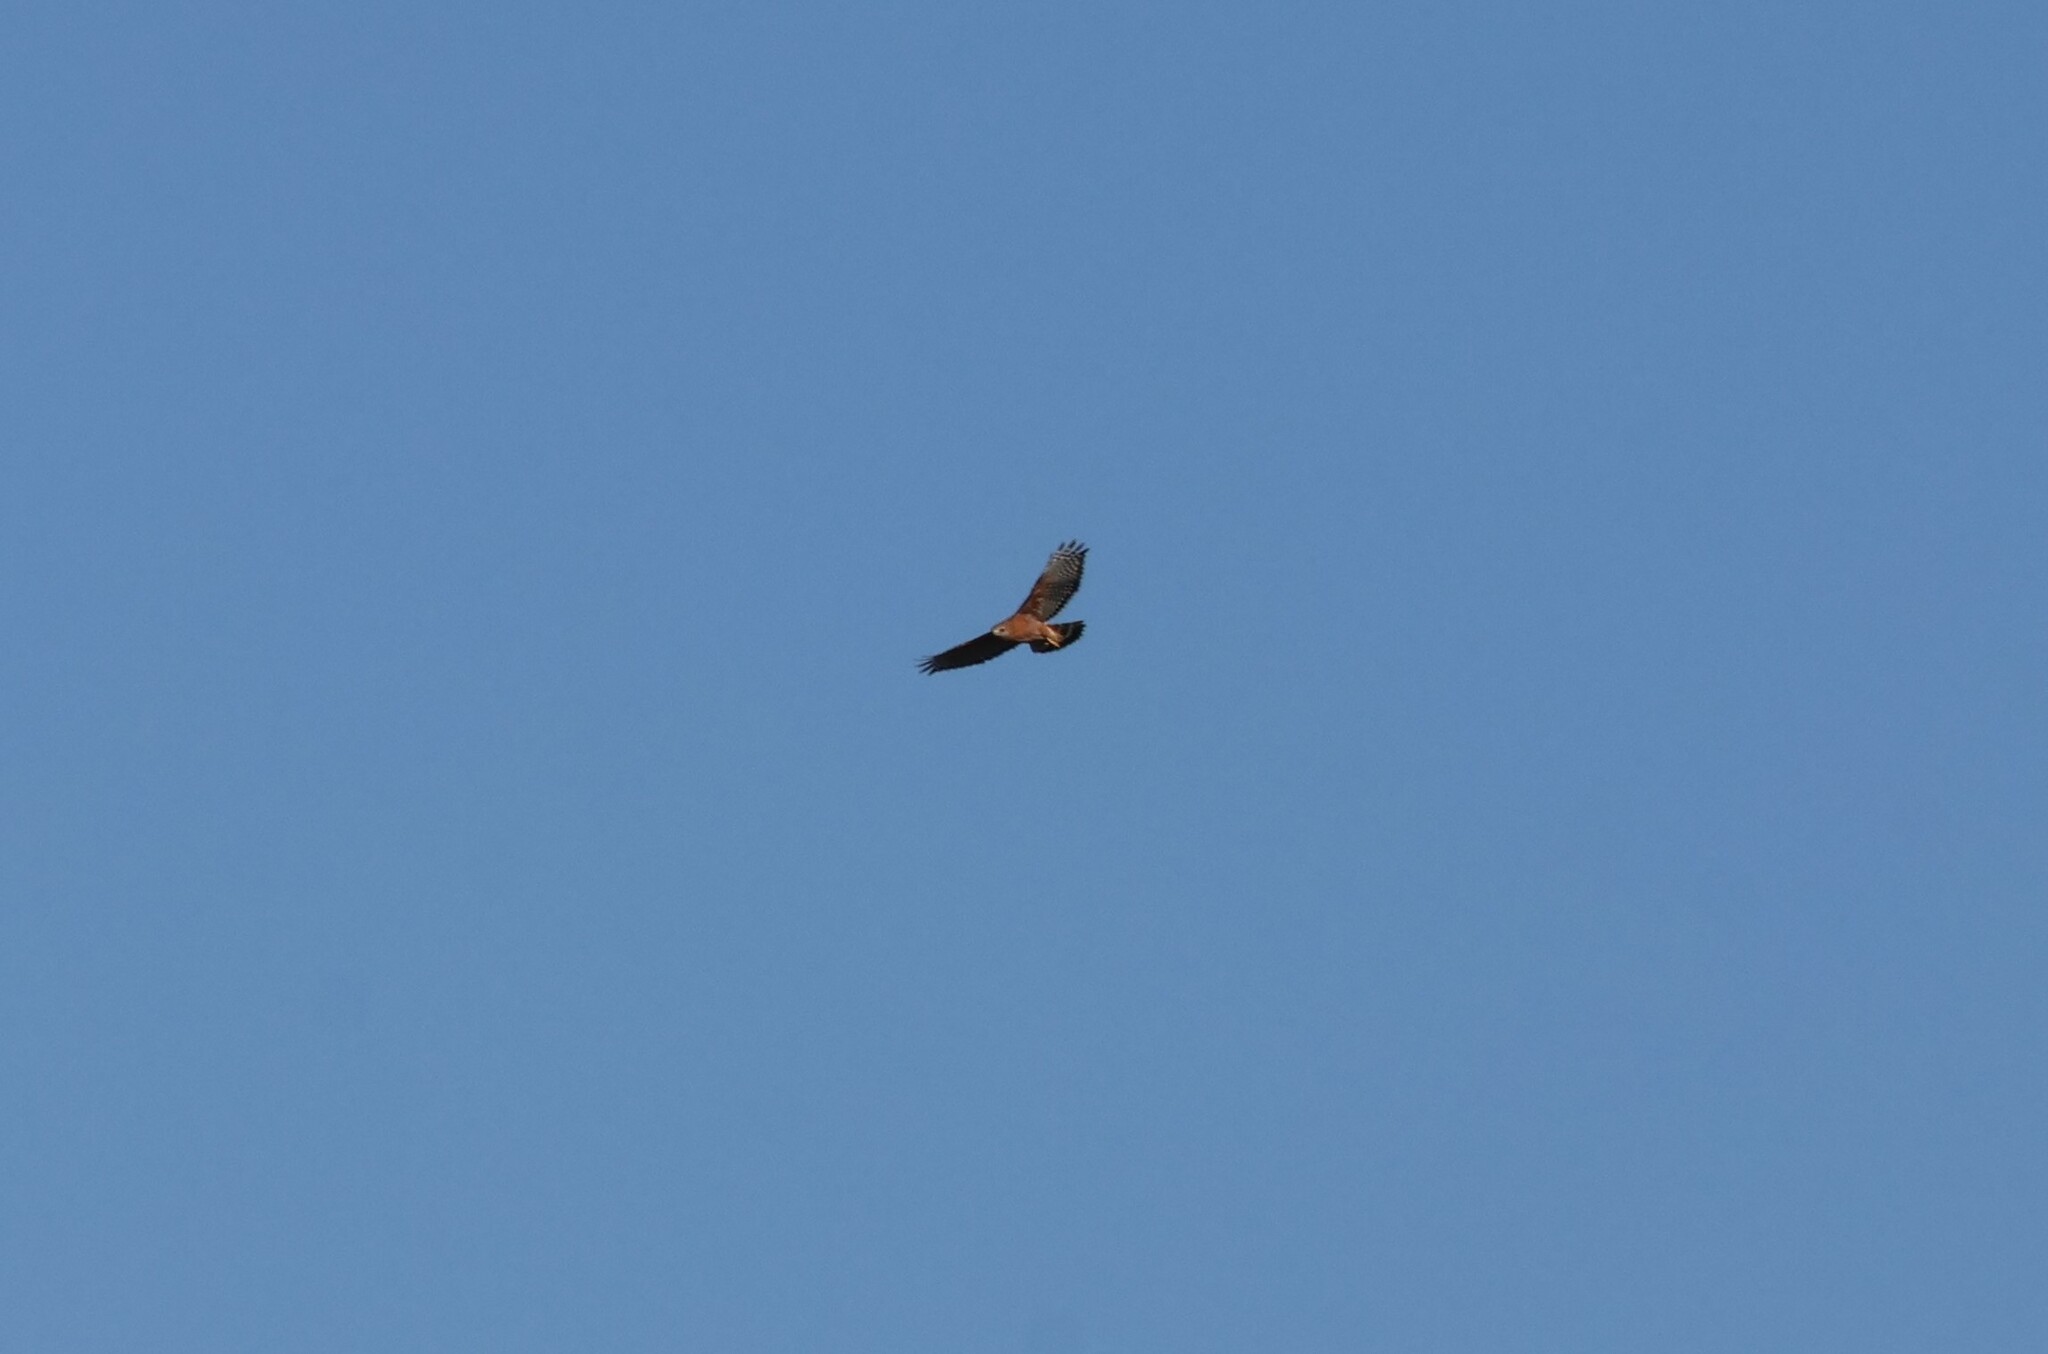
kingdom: Animalia
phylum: Chordata
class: Aves
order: Accipitriformes
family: Accipitridae
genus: Buteo
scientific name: Buteo lineatus
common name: Red-shouldered hawk
